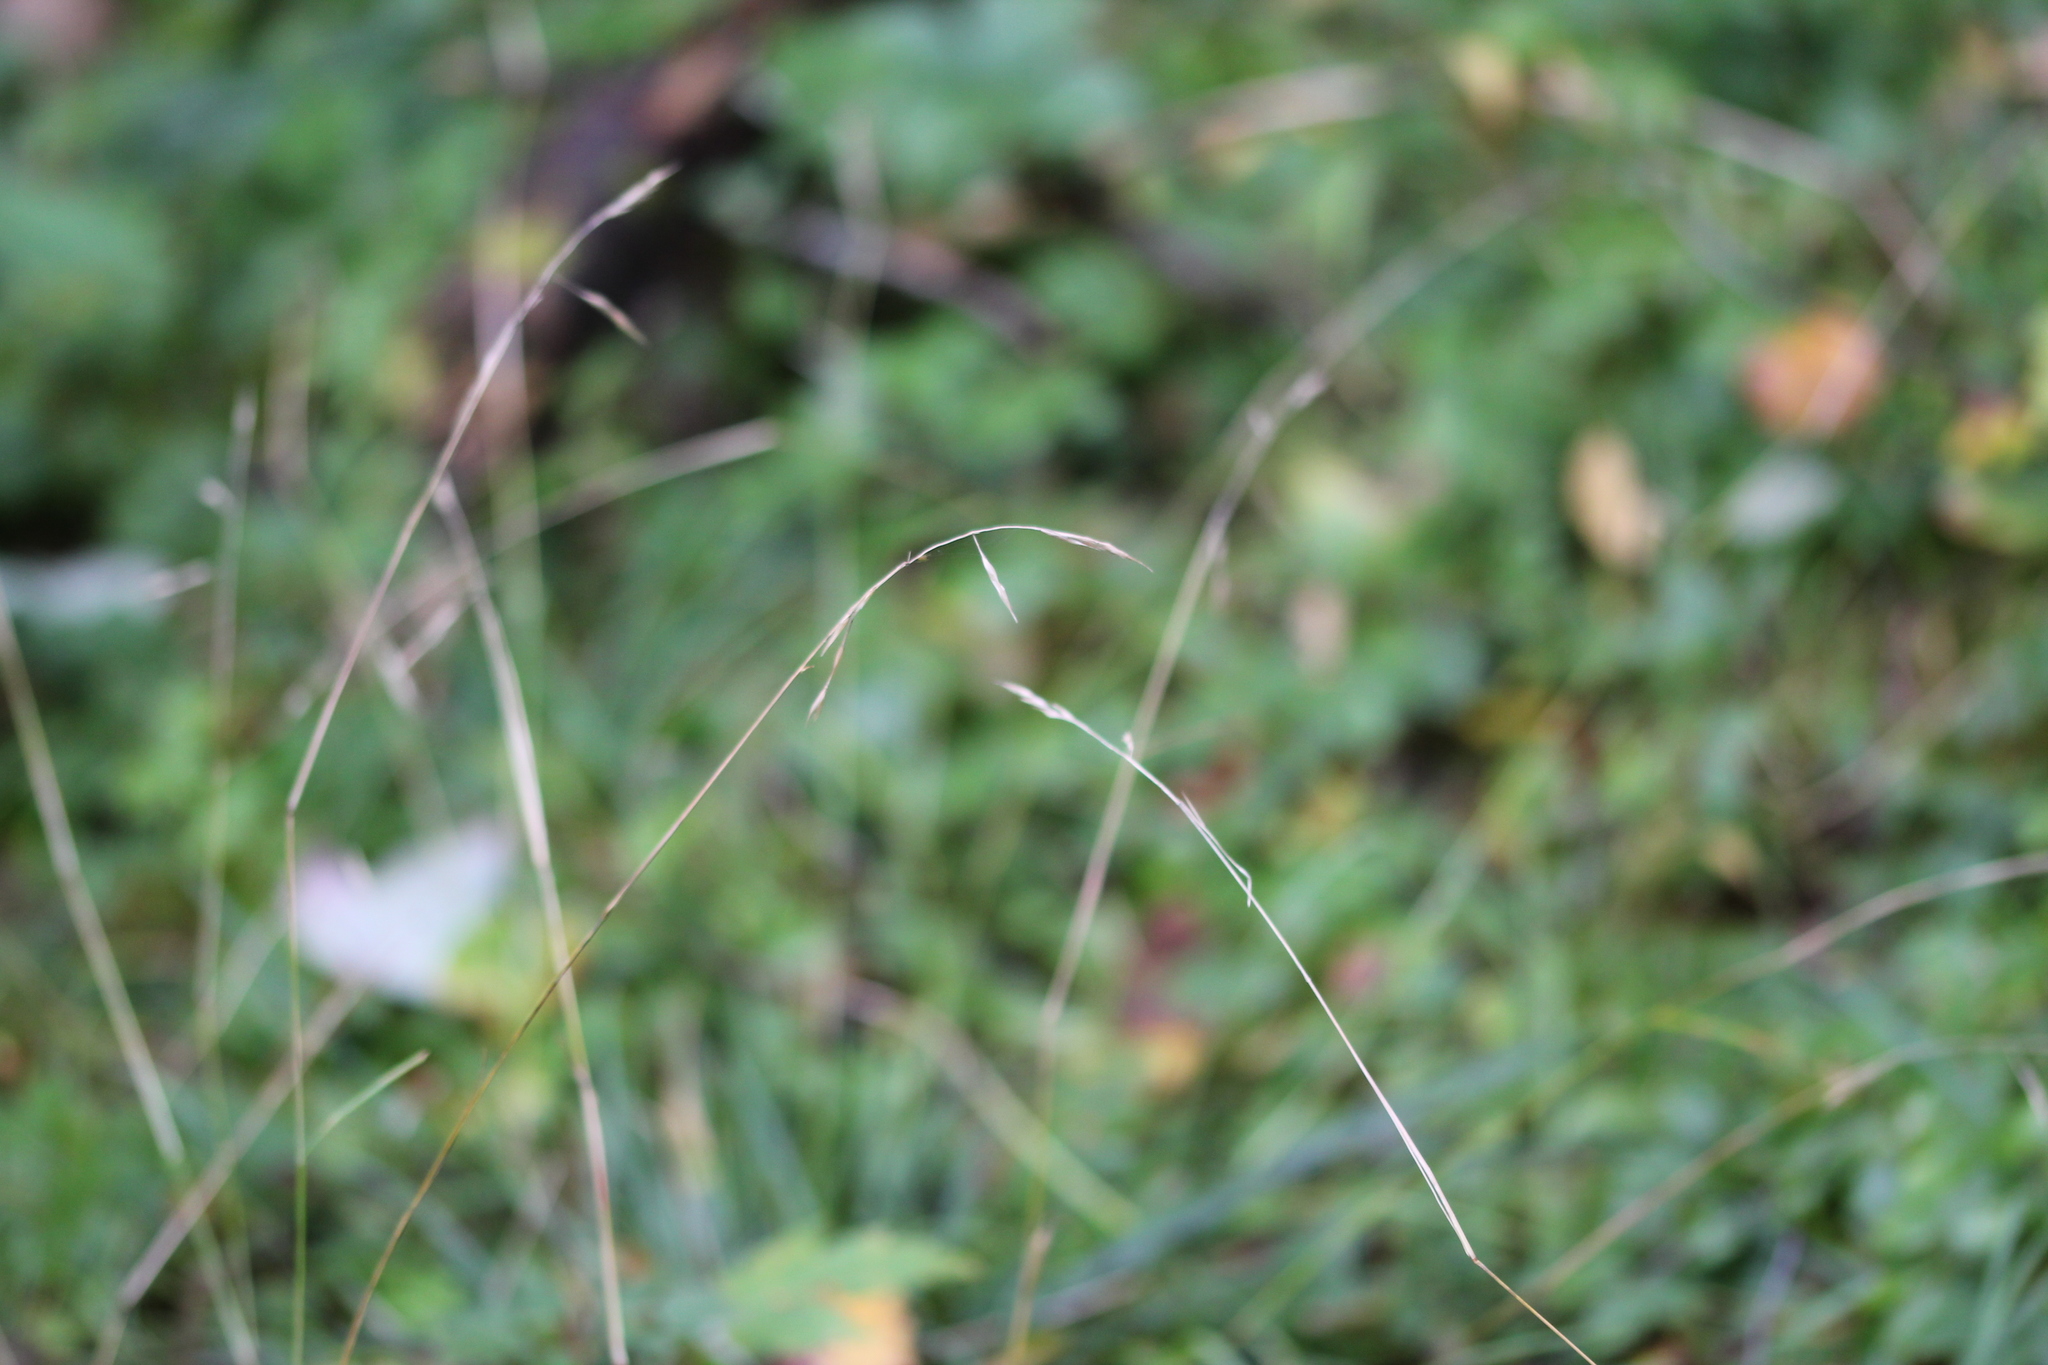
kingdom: Plantae
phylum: Tracheophyta
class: Liliopsida
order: Poales
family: Poaceae
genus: Danthonia
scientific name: Danthonia compressa
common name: Flat-stem oat grass
